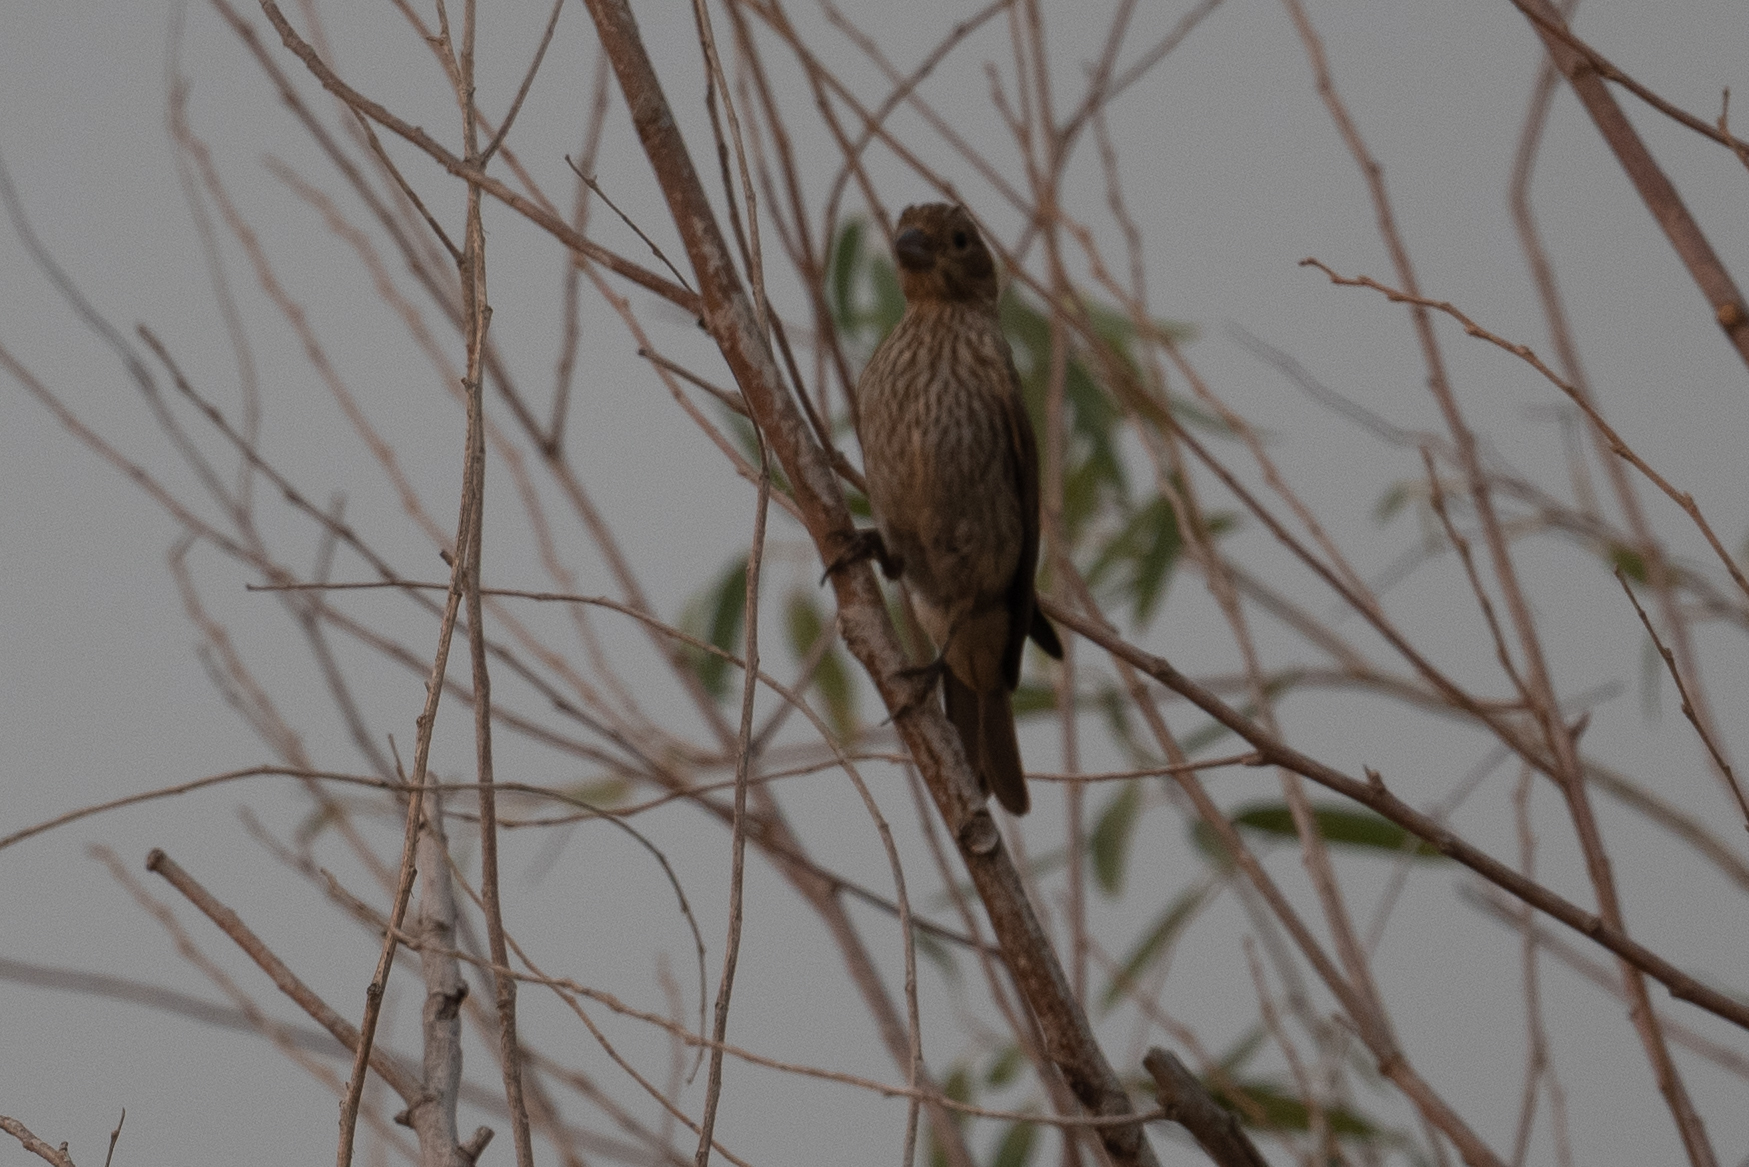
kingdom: Animalia
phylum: Chordata
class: Aves
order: Passeriformes
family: Fringillidae
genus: Haemorhous
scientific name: Haemorhous mexicanus
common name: House finch
